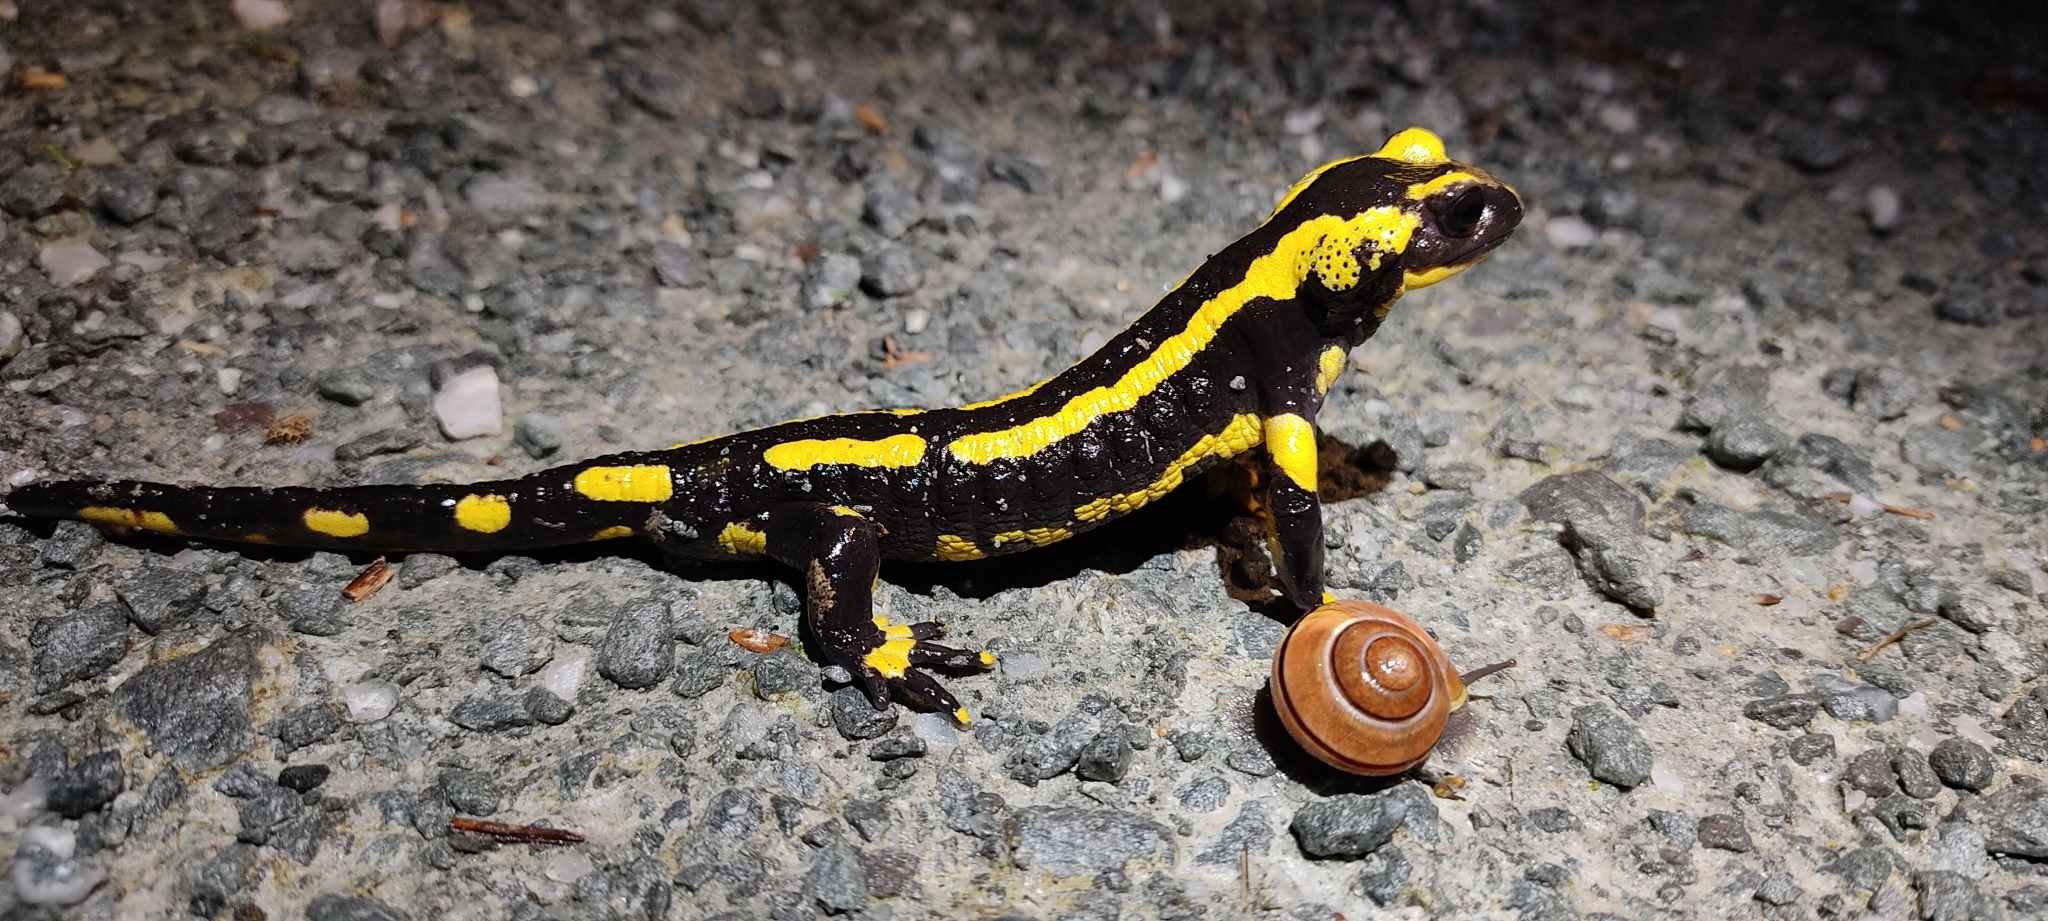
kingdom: Animalia
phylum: Chordata
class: Amphibia
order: Caudata
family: Salamandridae
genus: Salamandra
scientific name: Salamandra salamandra
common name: Fire salamander
